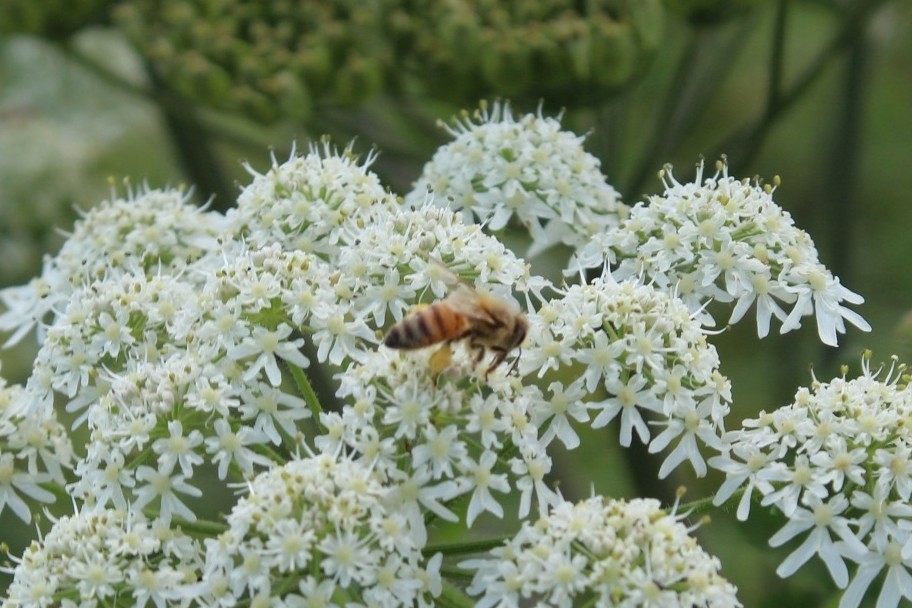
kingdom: Animalia
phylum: Arthropoda
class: Insecta
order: Hymenoptera
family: Apidae
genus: Apis
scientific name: Apis mellifera
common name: Honey bee
